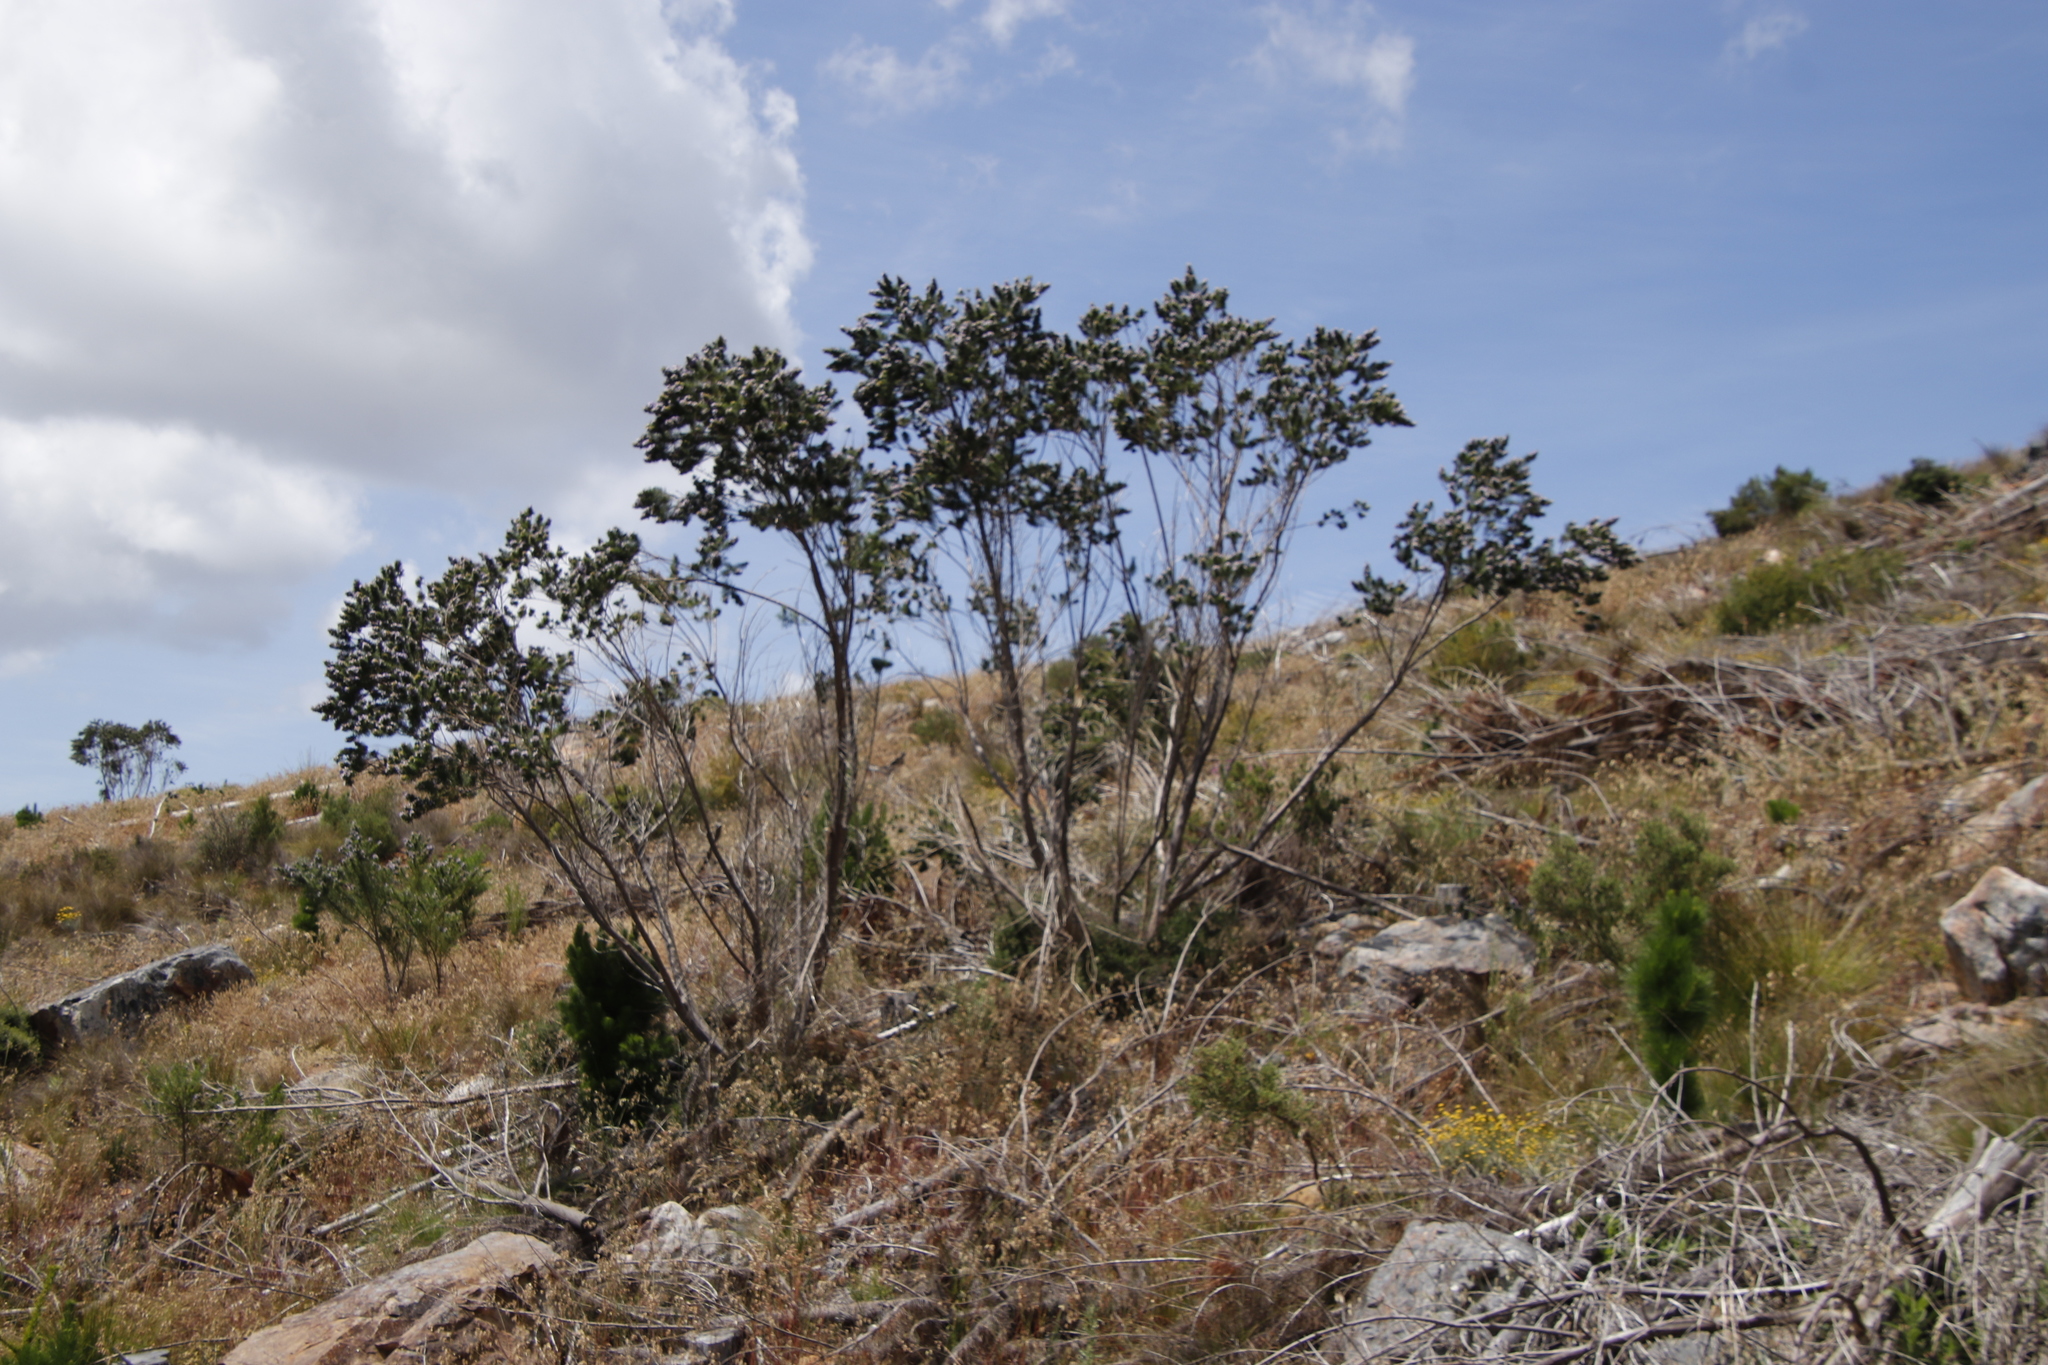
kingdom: Plantae
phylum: Tracheophyta
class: Magnoliopsida
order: Fabales
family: Fabaceae
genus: Psoralea
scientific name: Psoralea pinnata
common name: African scurfpea
